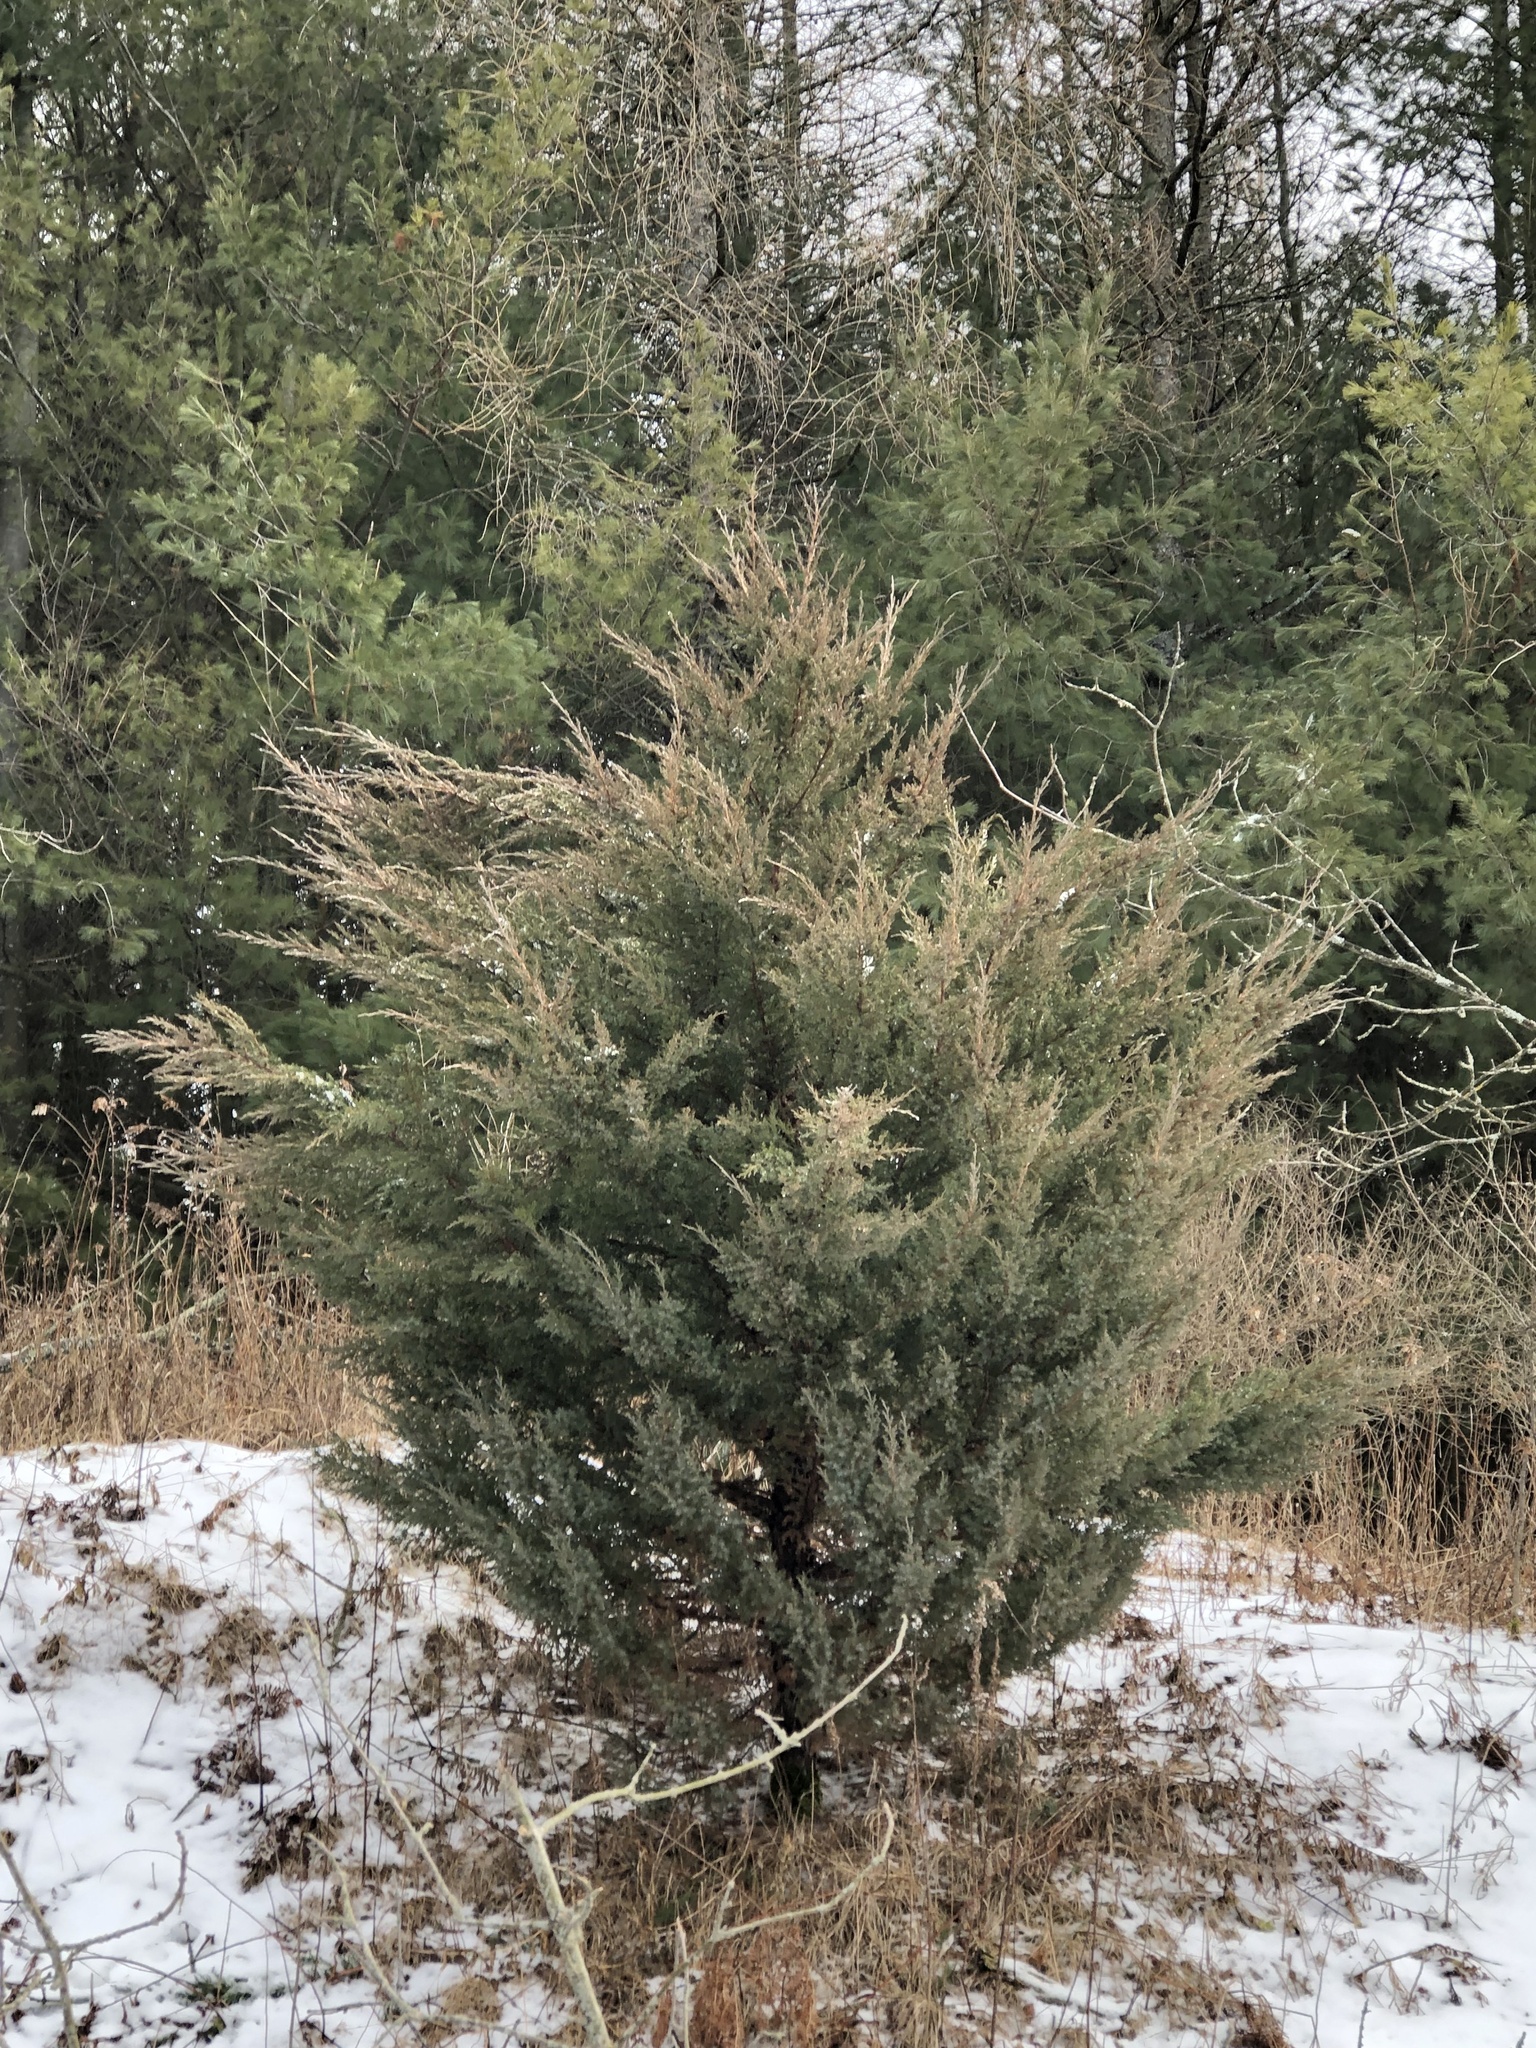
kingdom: Plantae
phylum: Tracheophyta
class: Pinopsida
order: Pinales
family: Cupressaceae
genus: Juniperus
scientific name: Juniperus virginiana
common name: Red juniper
